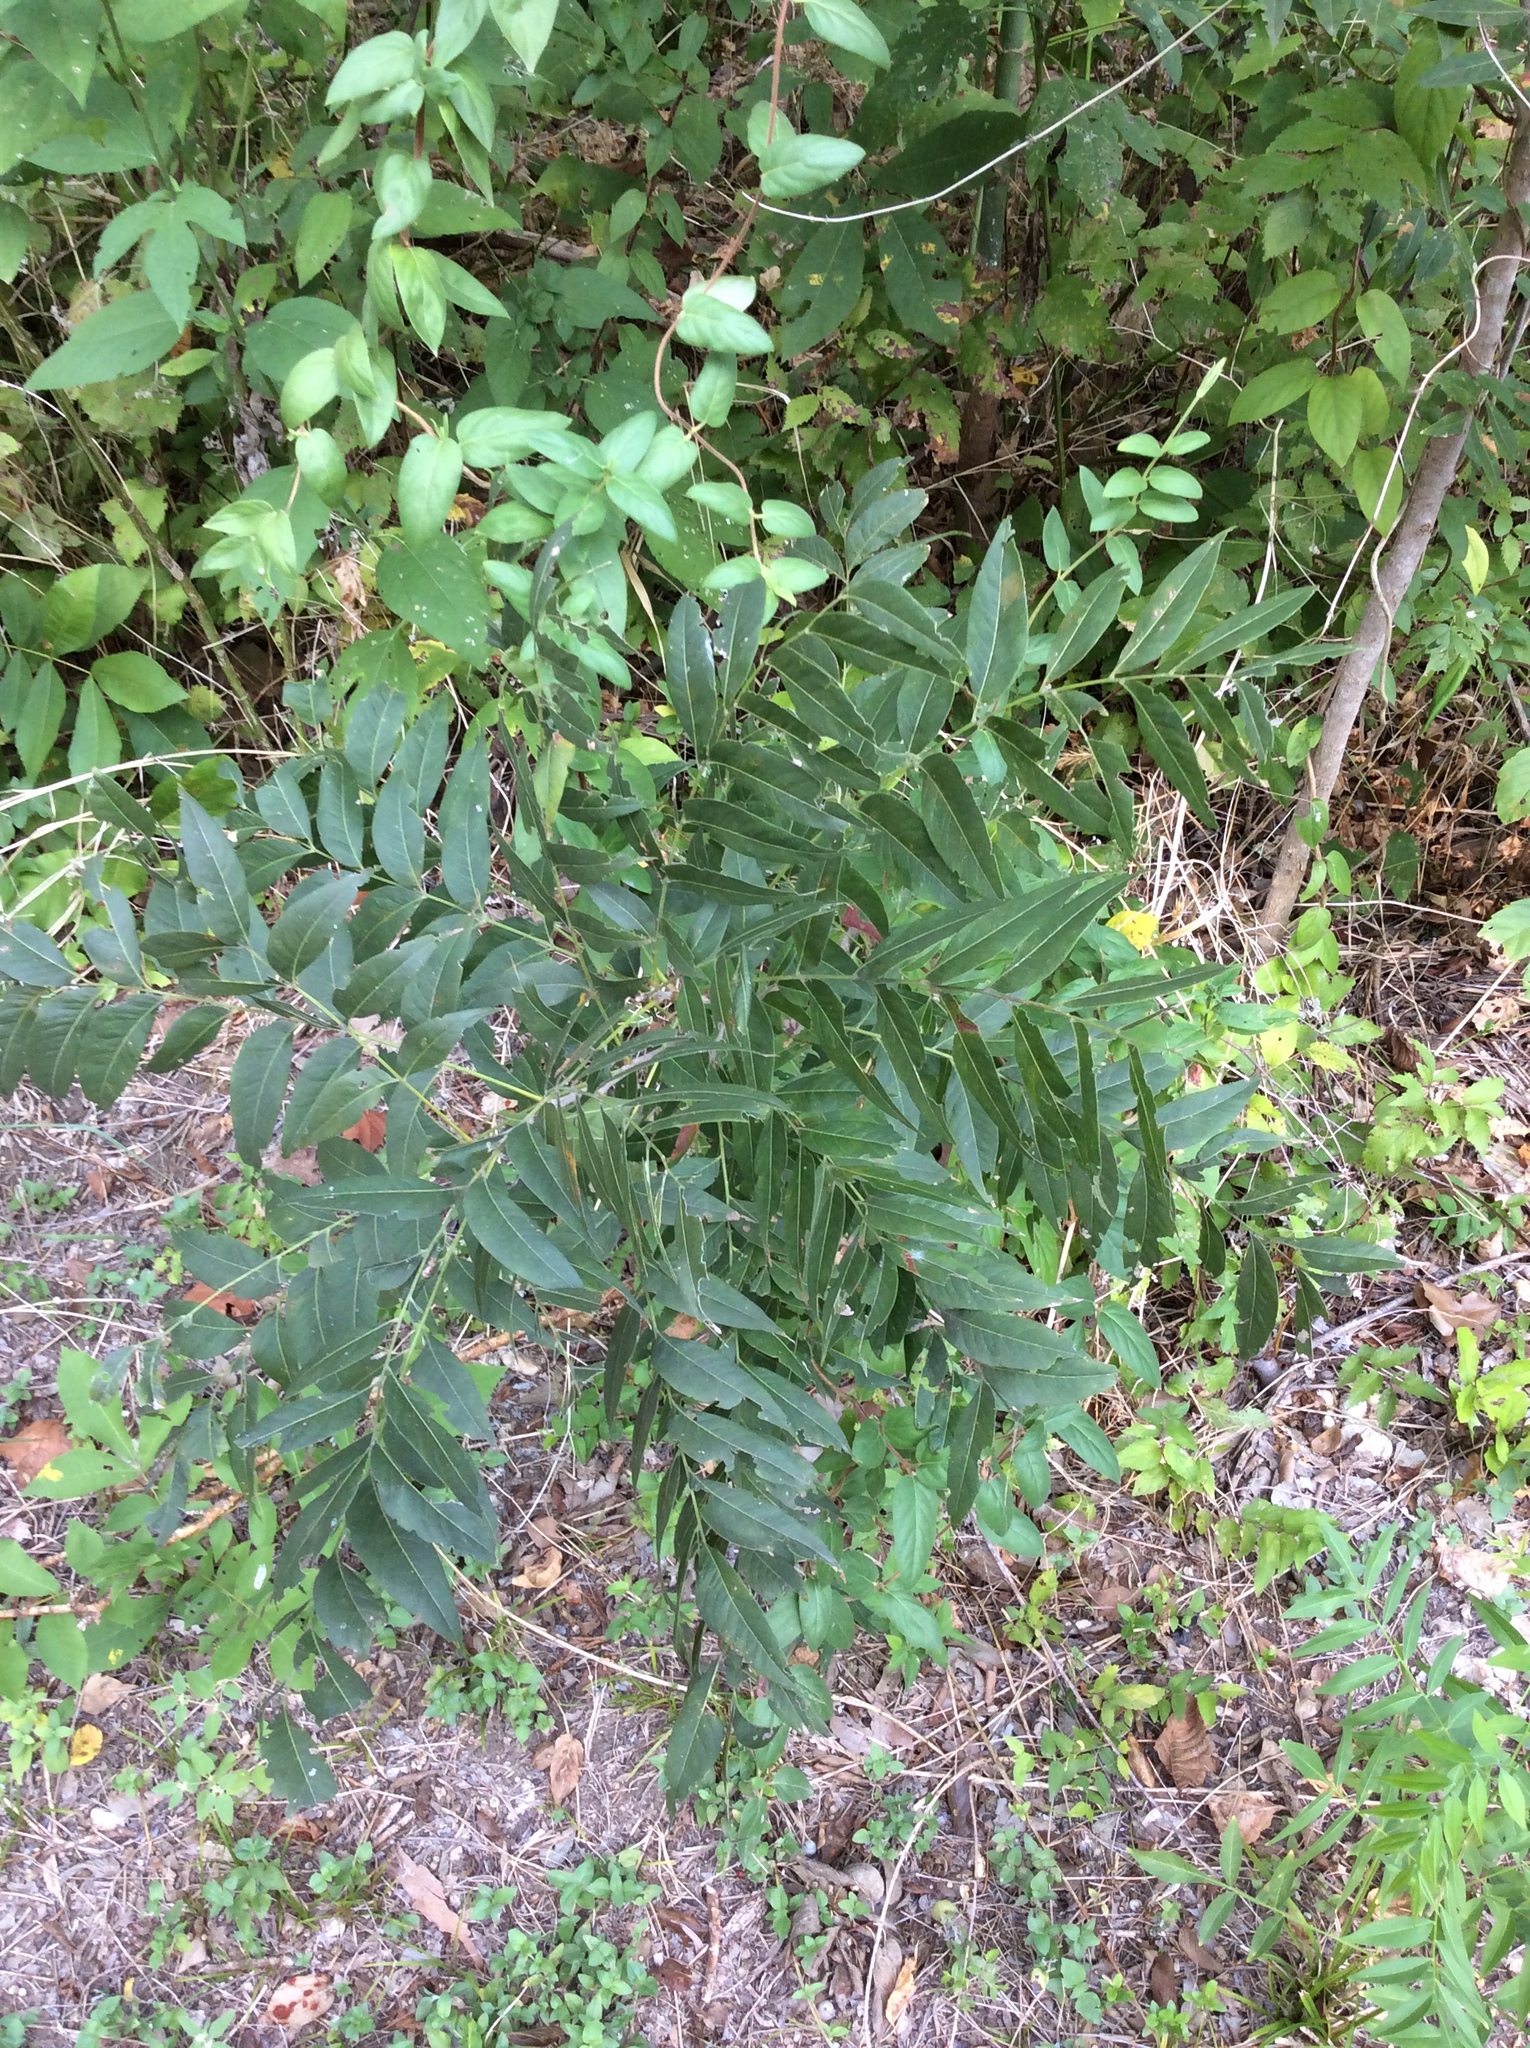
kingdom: Plantae
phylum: Tracheophyta
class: Magnoliopsida
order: Sapindales
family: Sapindaceae
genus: Sapindus
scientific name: Sapindus drummondii
